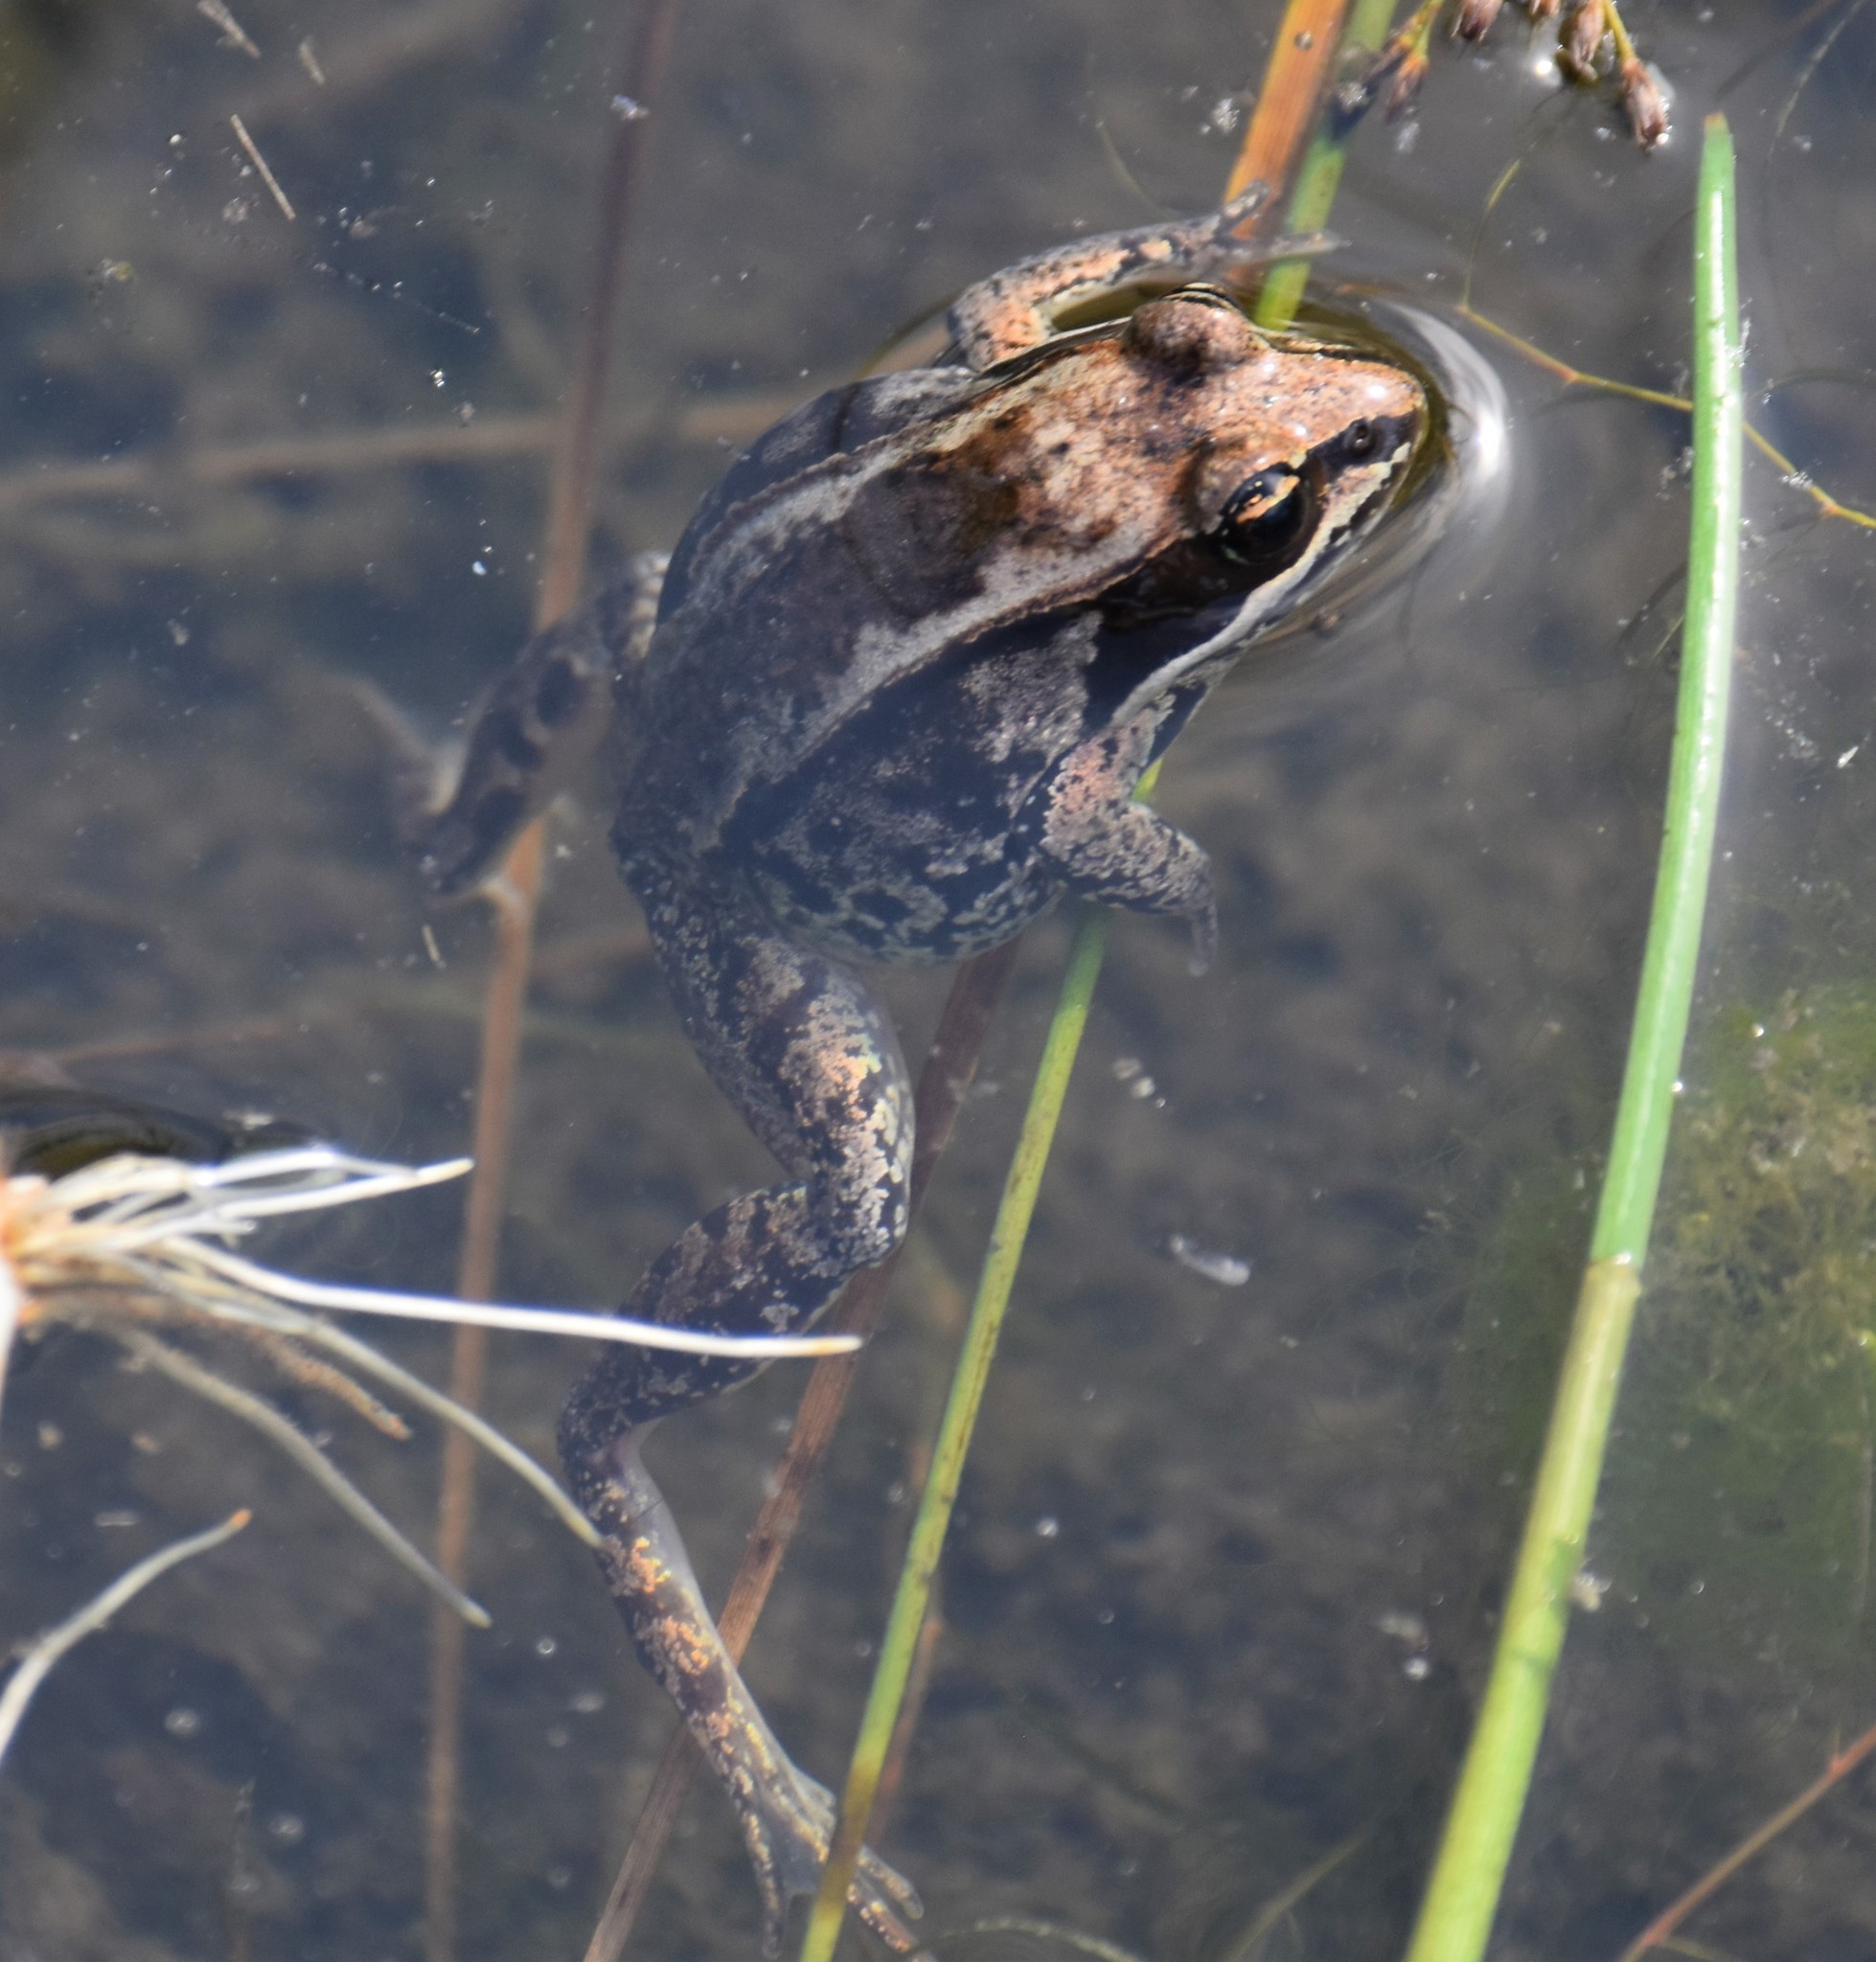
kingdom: Animalia
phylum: Chordata
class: Amphibia
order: Anura
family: Ranidae
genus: Lithobates
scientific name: Lithobates sylvaticus
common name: Wood frog
